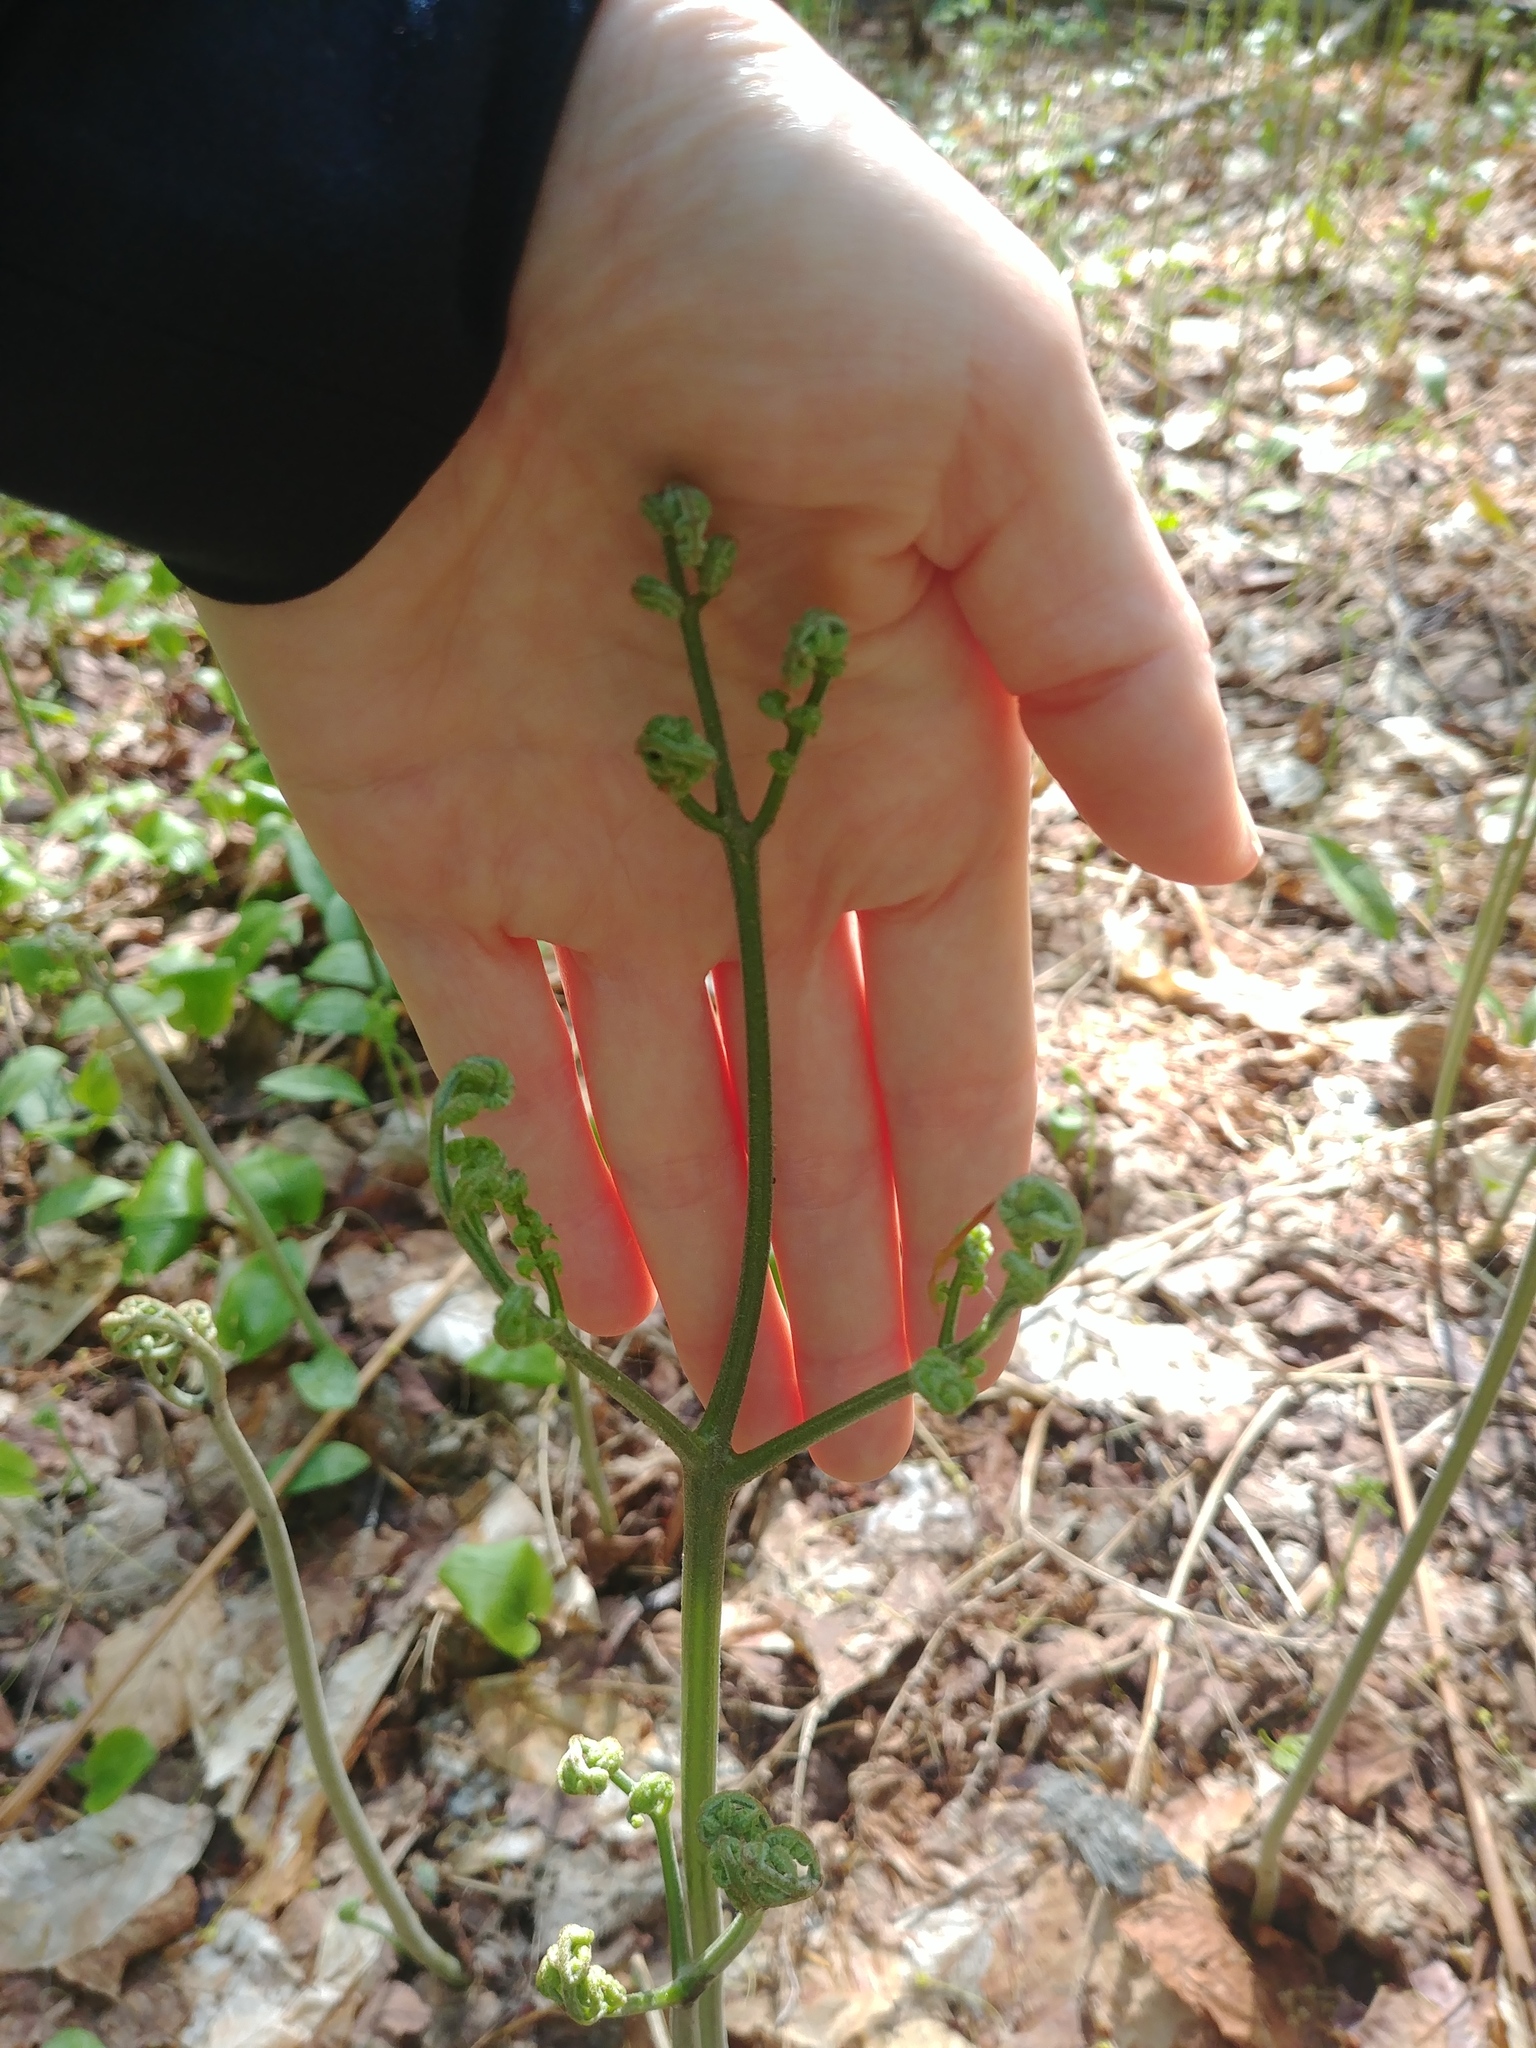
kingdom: Plantae
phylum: Tracheophyta
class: Polypodiopsida
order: Polypodiales
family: Dennstaedtiaceae
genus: Pteridium
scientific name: Pteridium aquilinum
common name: Bracken
